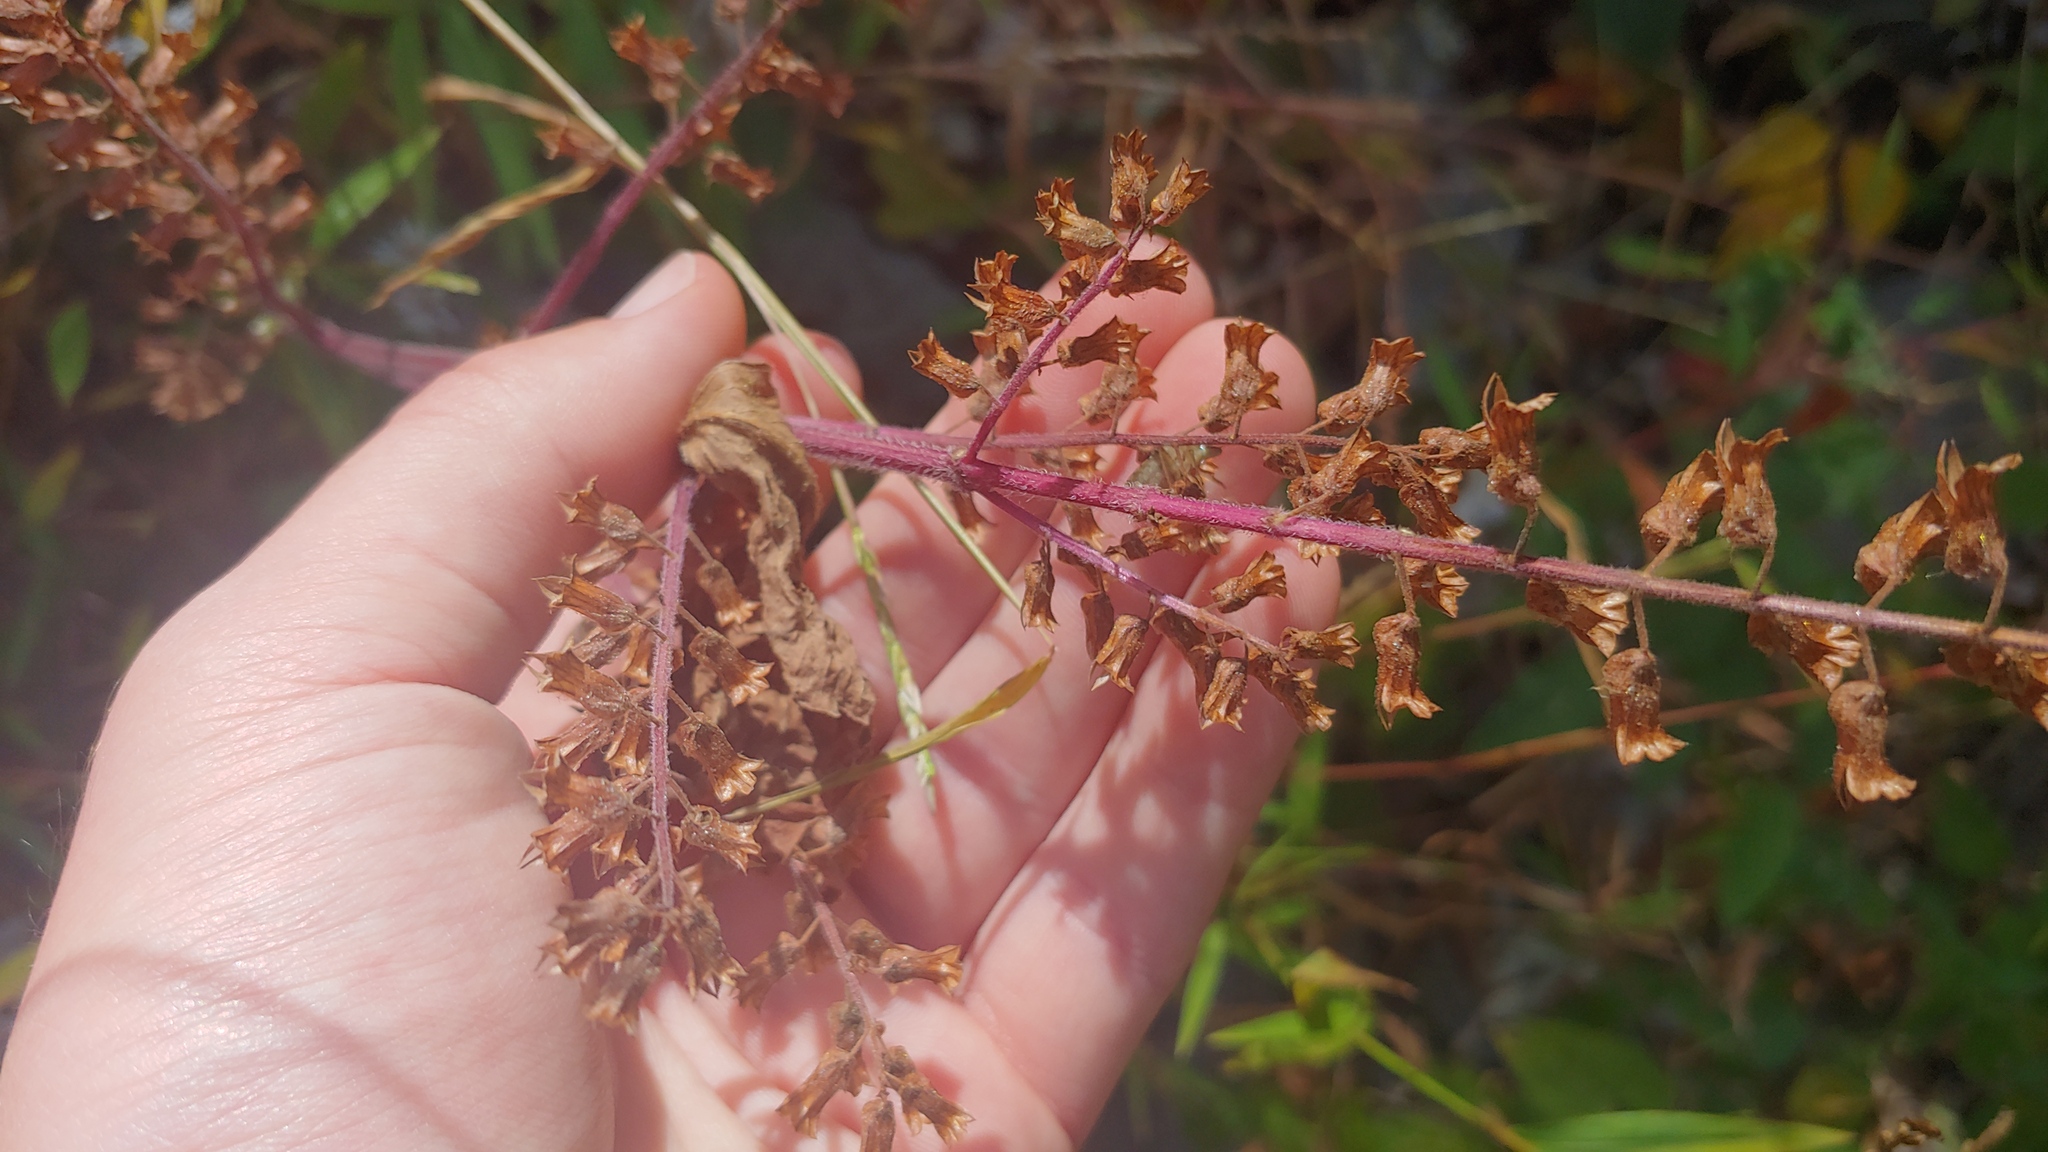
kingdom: Plantae
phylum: Tracheophyta
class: Magnoliopsida
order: Lamiales
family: Lamiaceae
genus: Perilla
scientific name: Perilla frutescens
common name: Perilla
